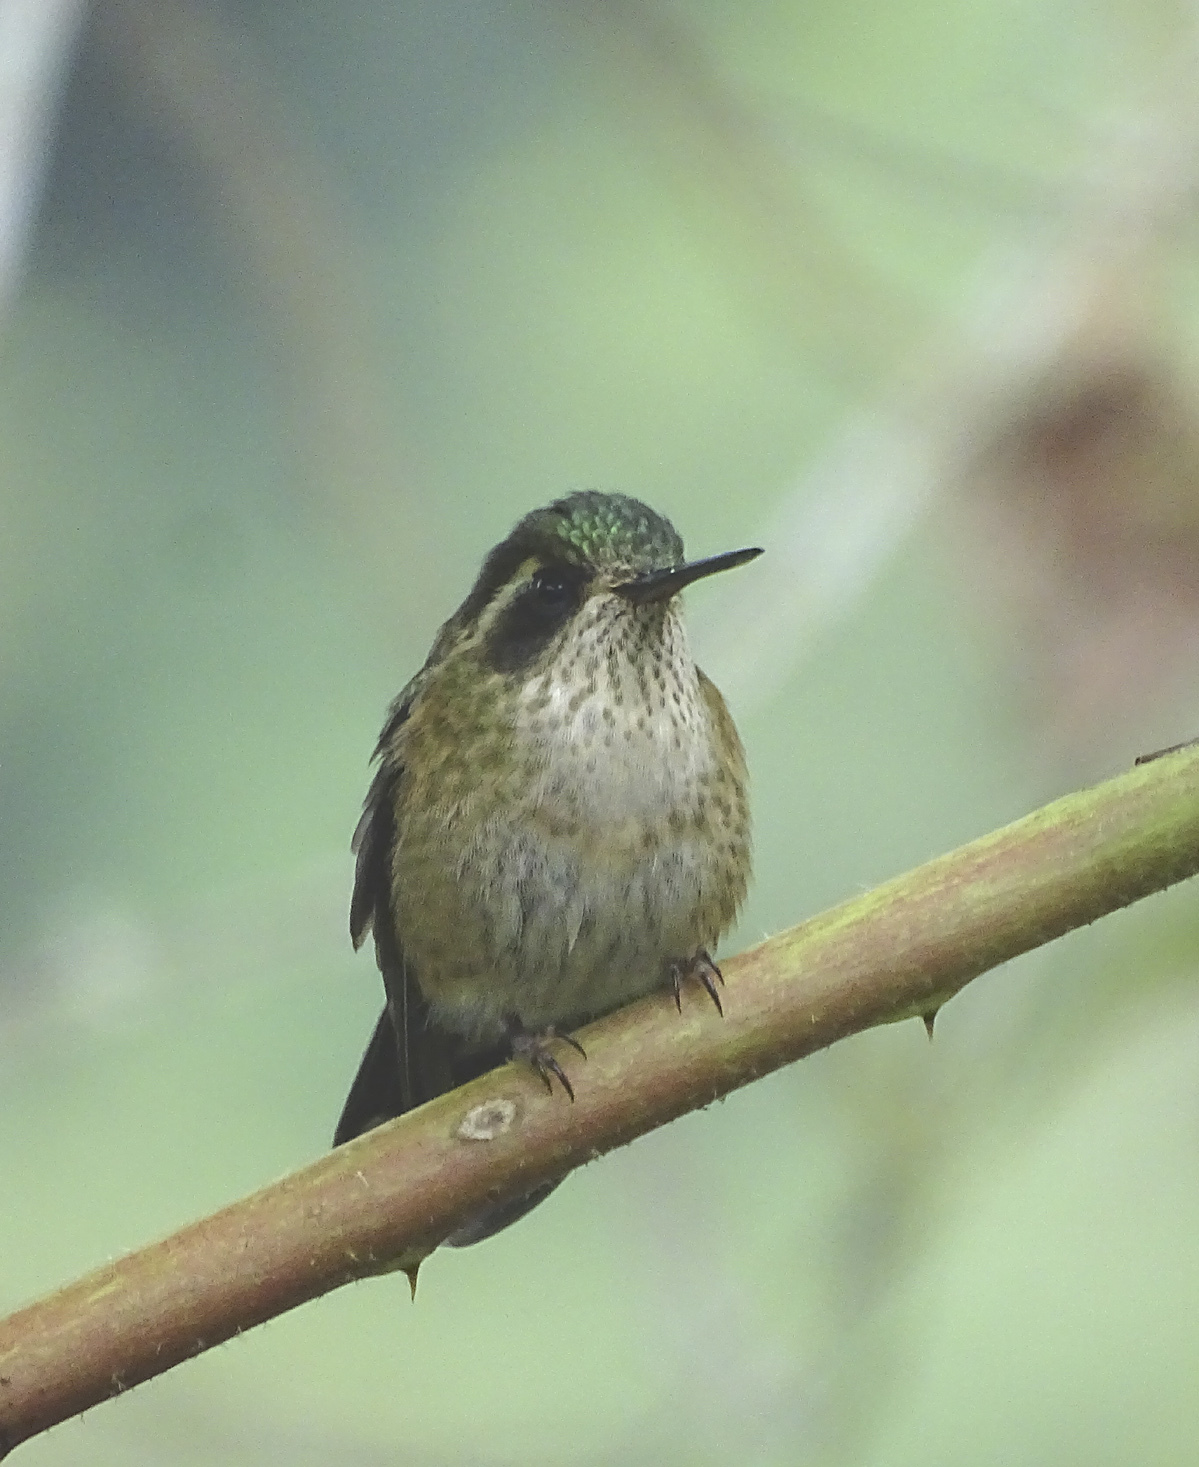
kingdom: Animalia
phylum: Chordata
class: Aves
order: Apodiformes
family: Trochilidae
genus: Adelomyia
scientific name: Adelomyia melanogenys
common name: Speckled hummingbird
